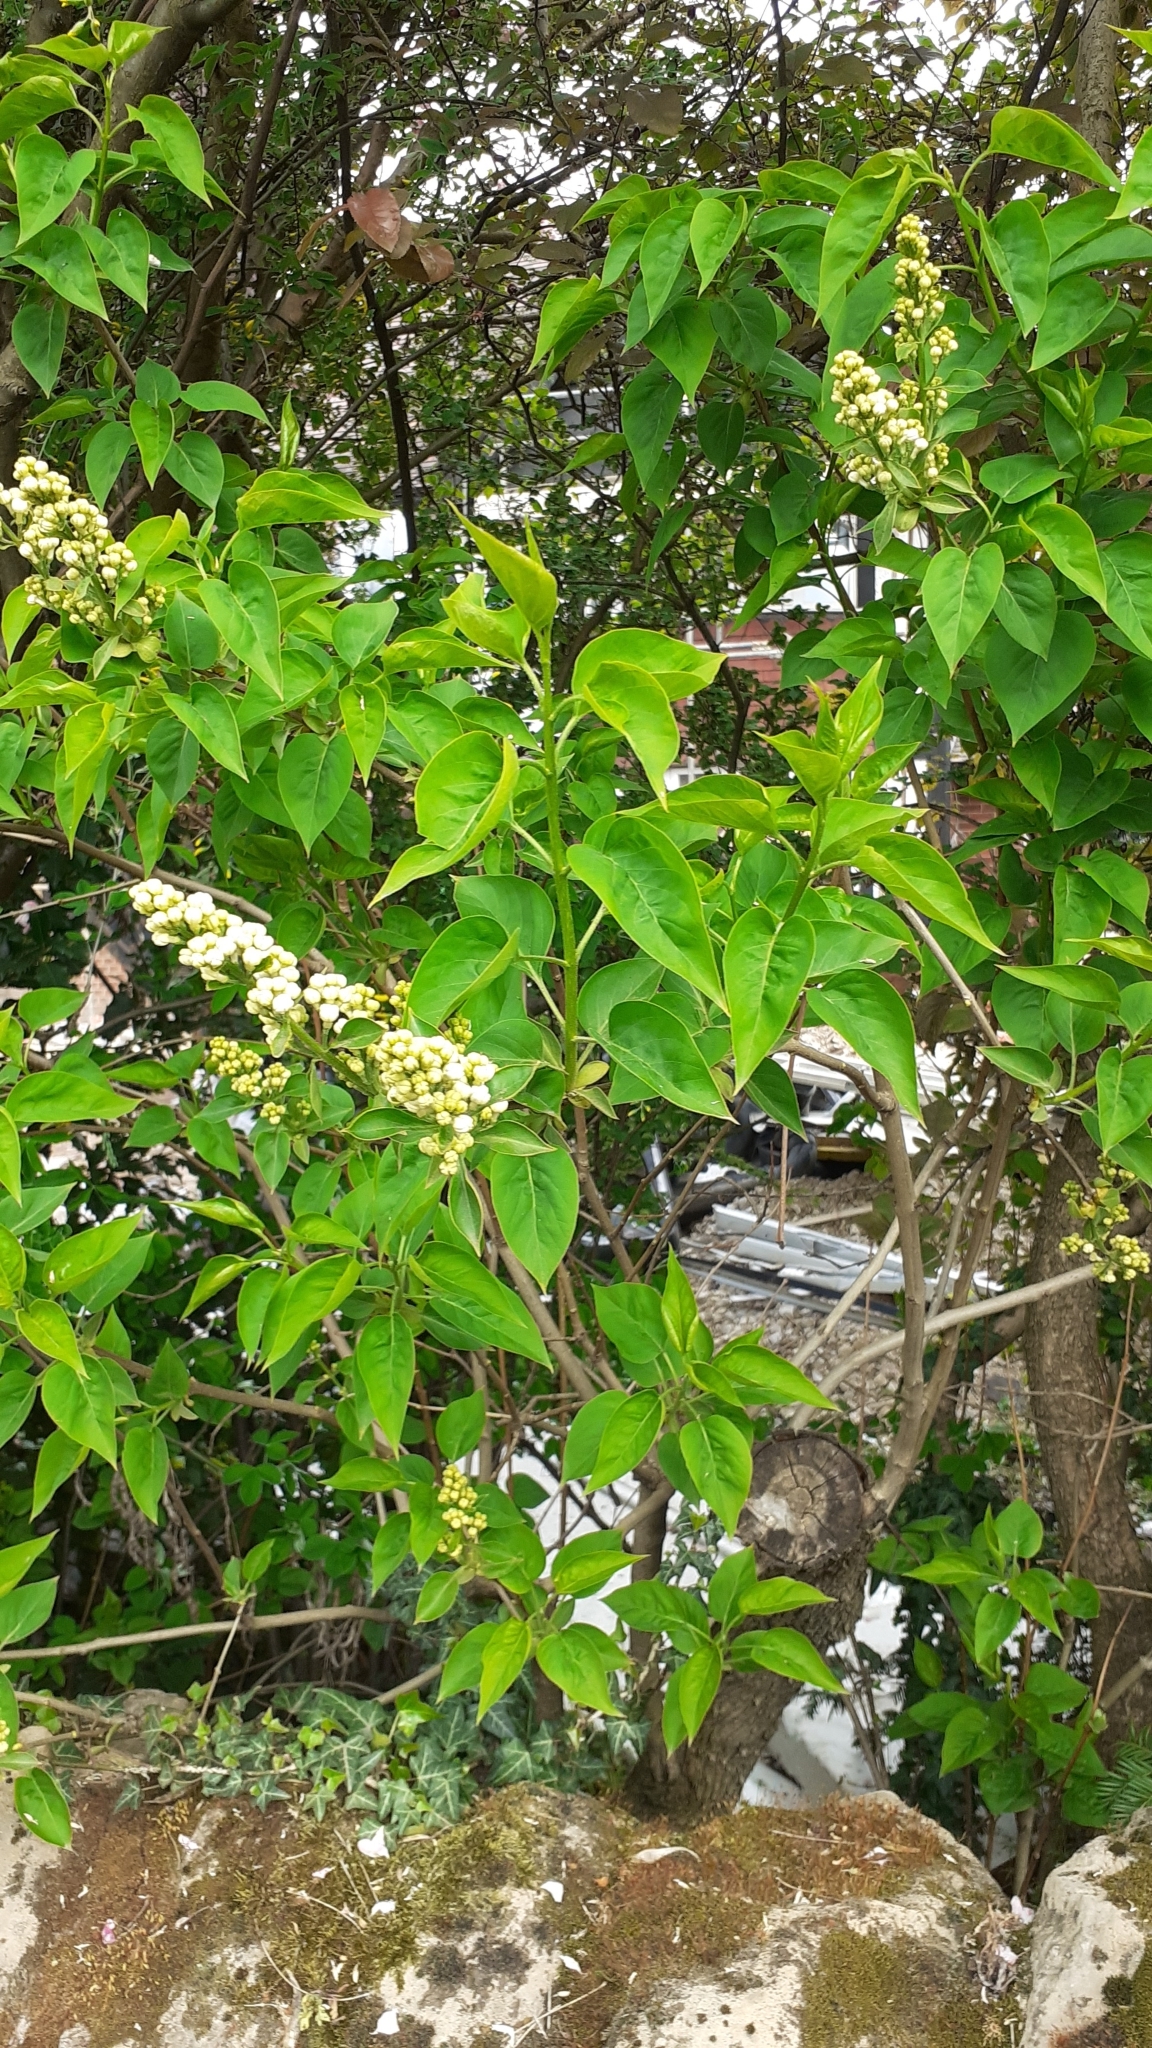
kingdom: Plantae
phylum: Tracheophyta
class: Magnoliopsida
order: Lamiales
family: Oleaceae
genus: Syringa
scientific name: Syringa vulgaris
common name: Common lilac
